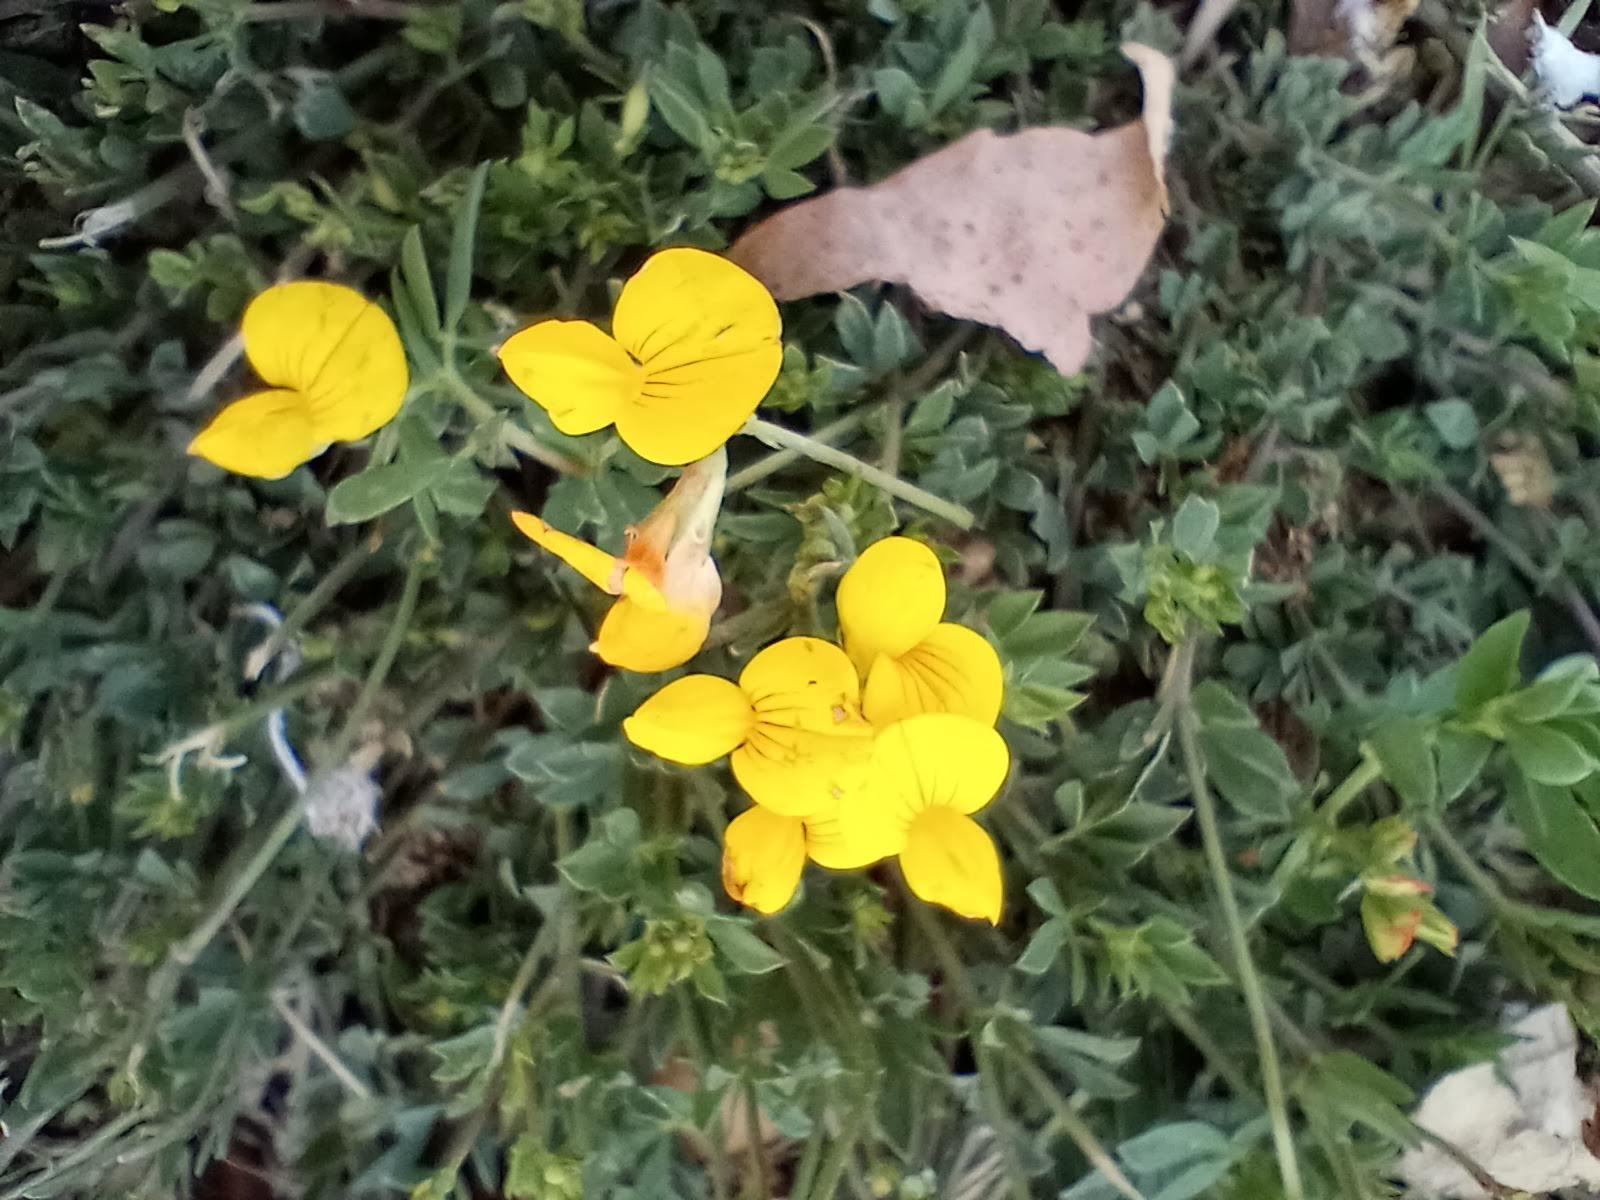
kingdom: Plantae
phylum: Tracheophyta
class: Magnoliopsida
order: Fabales
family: Fabaceae
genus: Lotus
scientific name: Lotus corniculatus
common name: Common bird's-foot-trefoil
